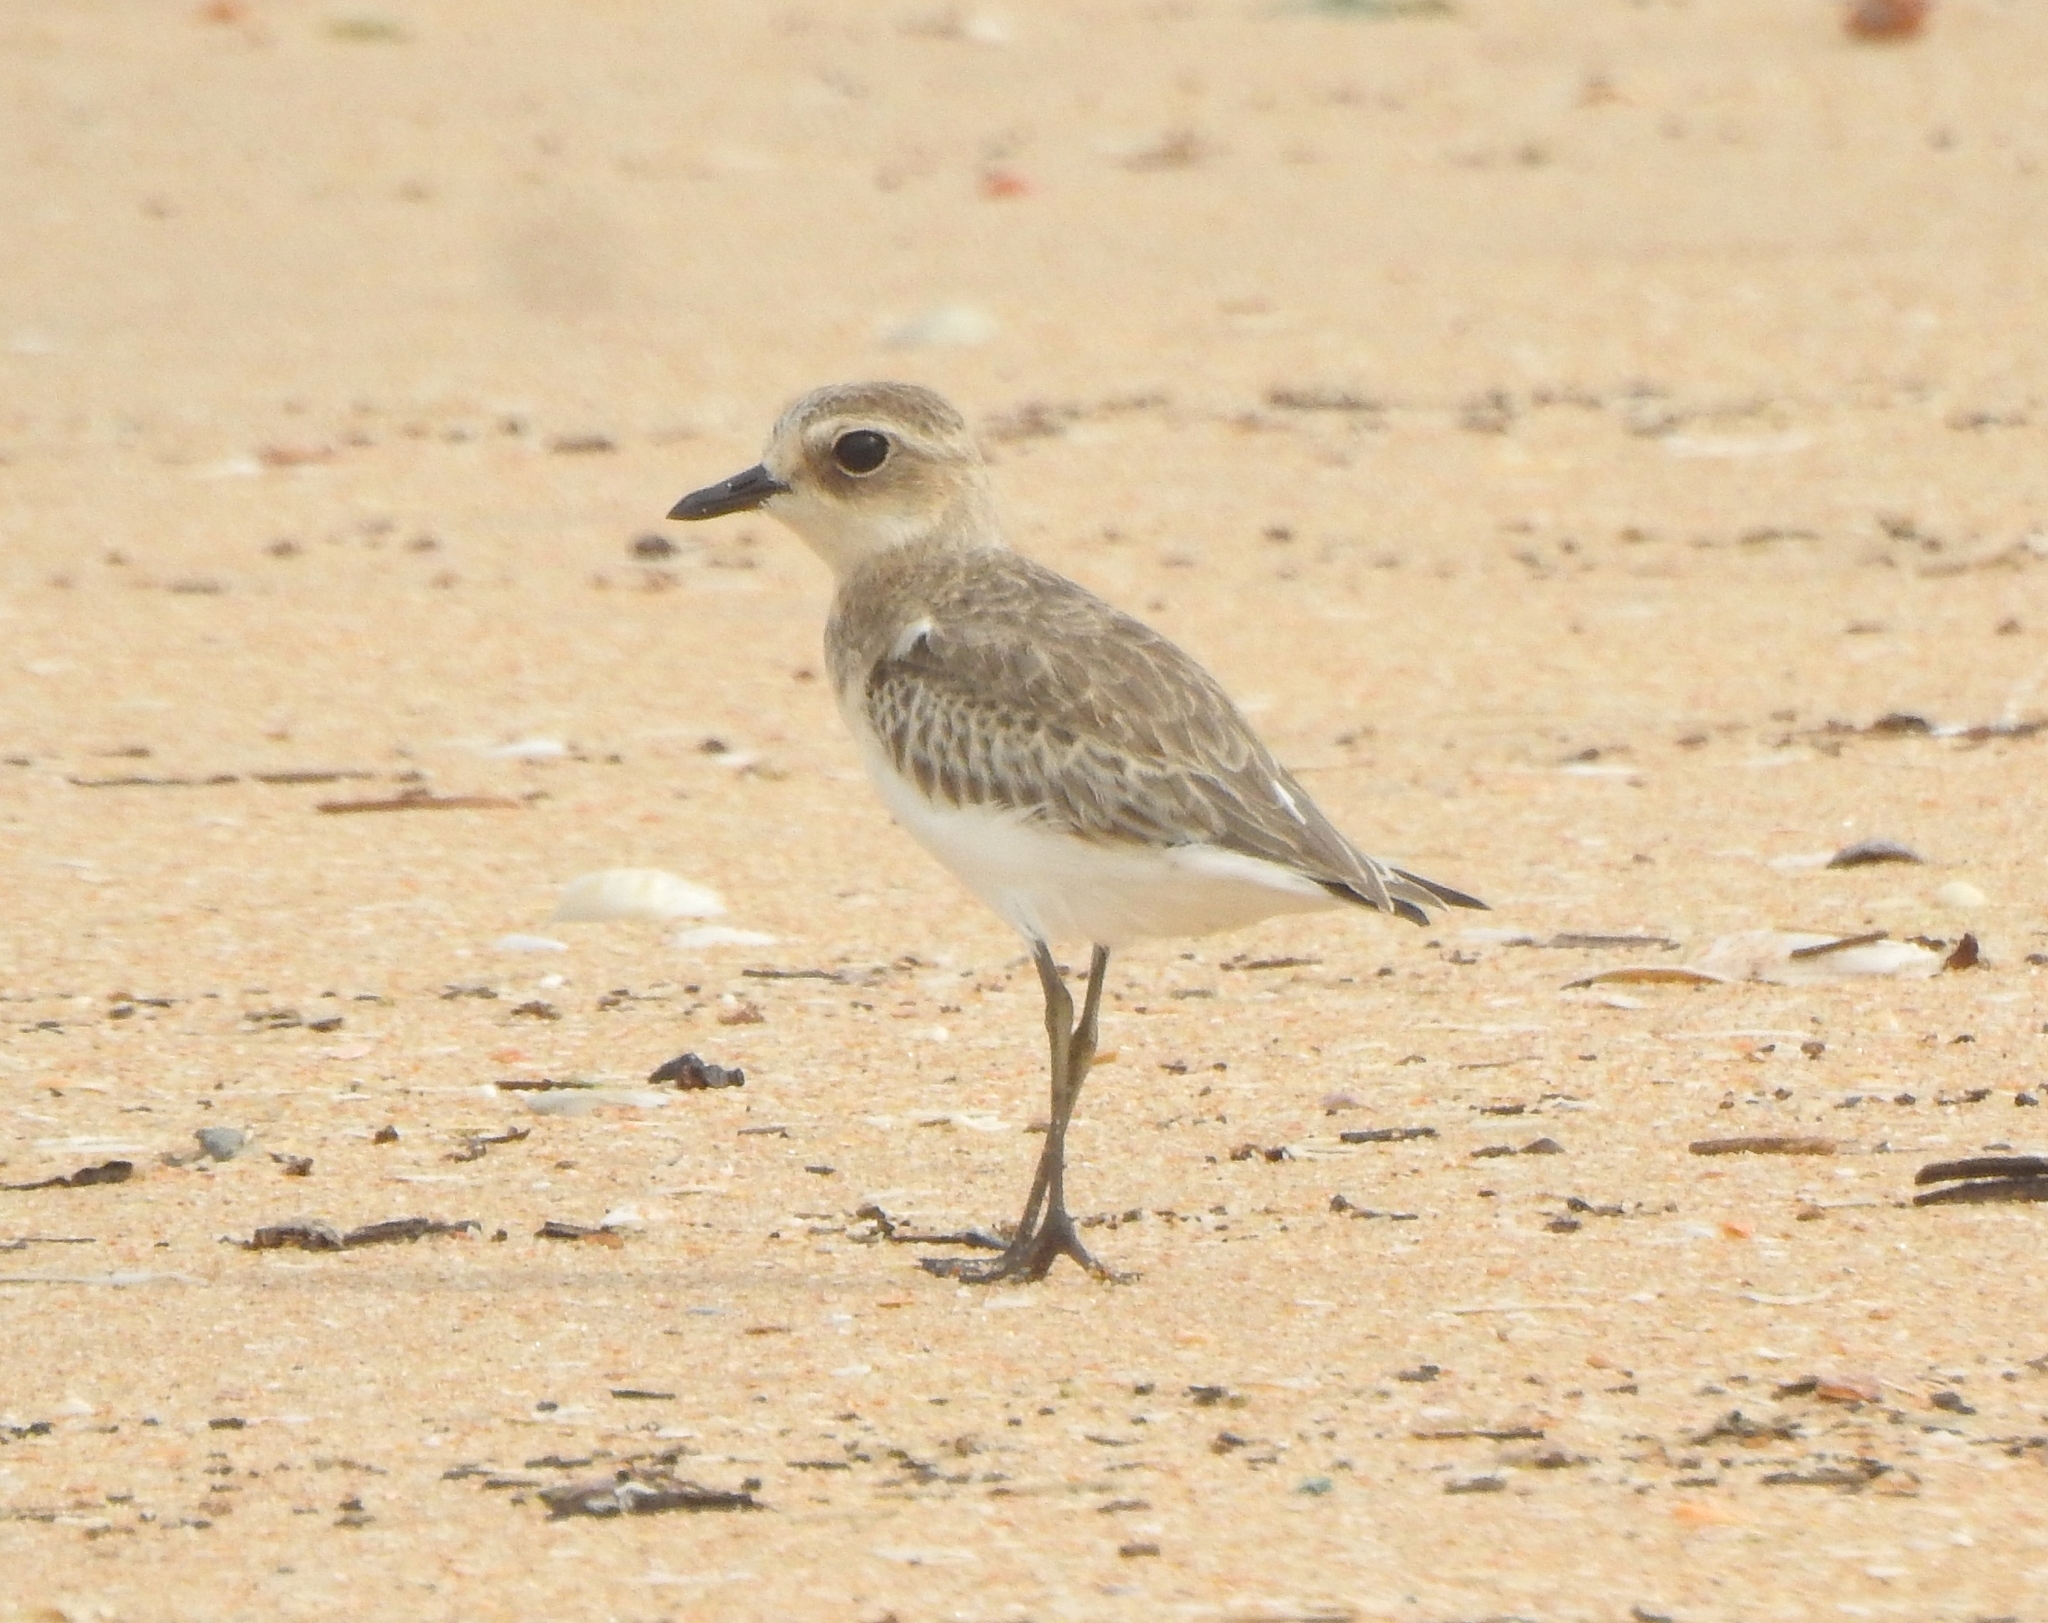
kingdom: Animalia
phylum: Chordata
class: Aves
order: Charadriiformes
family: Charadriidae
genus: Anarhynchus
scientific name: Anarhynchus
